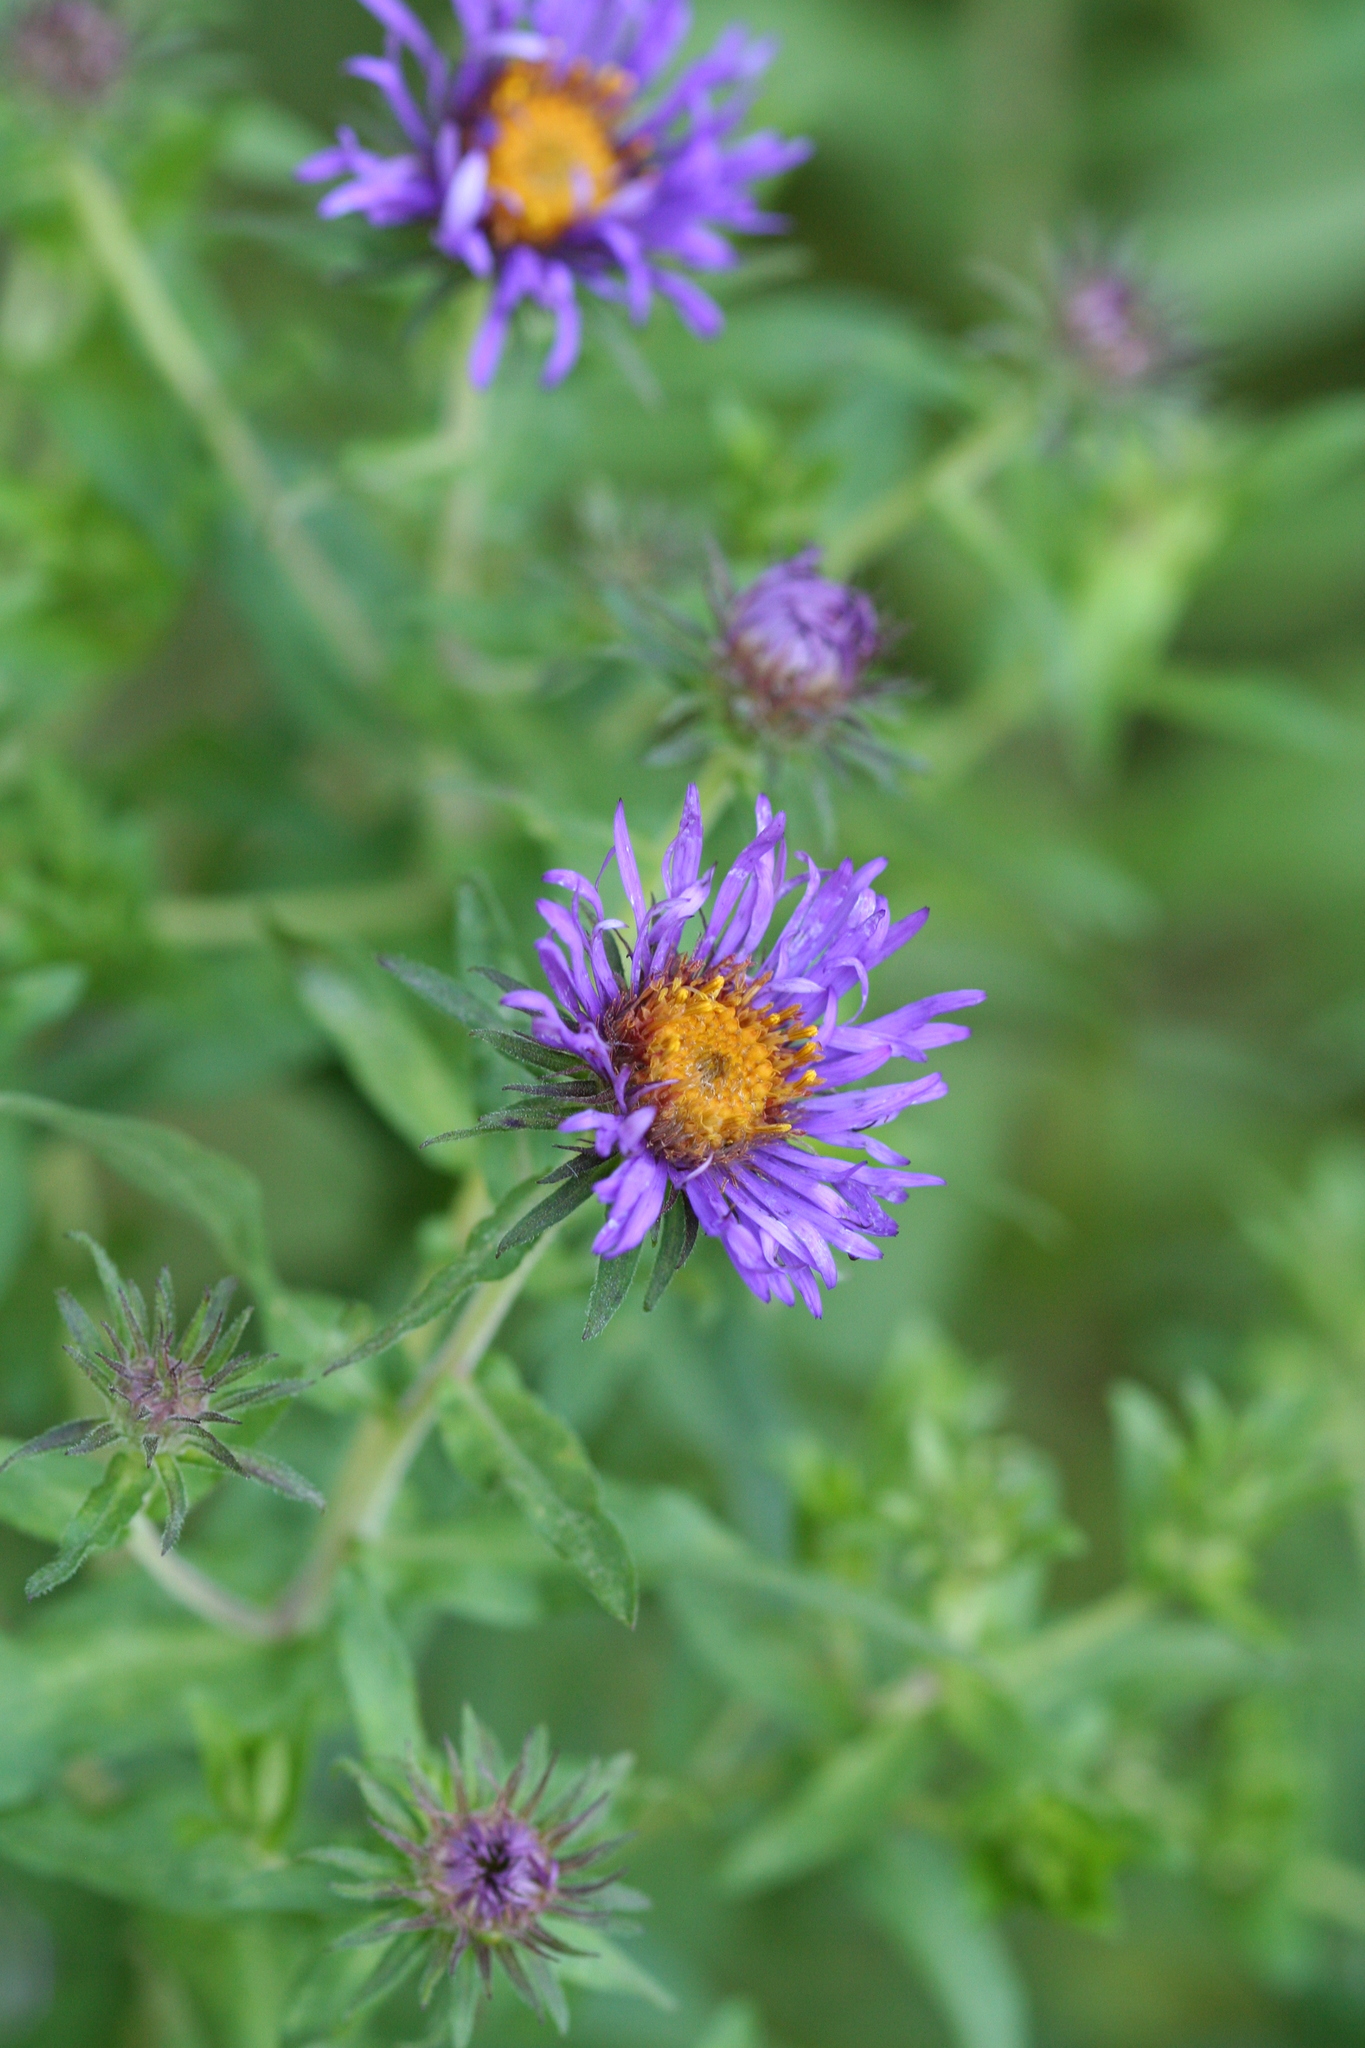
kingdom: Plantae
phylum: Tracheophyta
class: Magnoliopsida
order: Asterales
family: Asteraceae
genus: Symphyotrichum
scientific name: Symphyotrichum novae-angliae
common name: Michaelmas daisy
